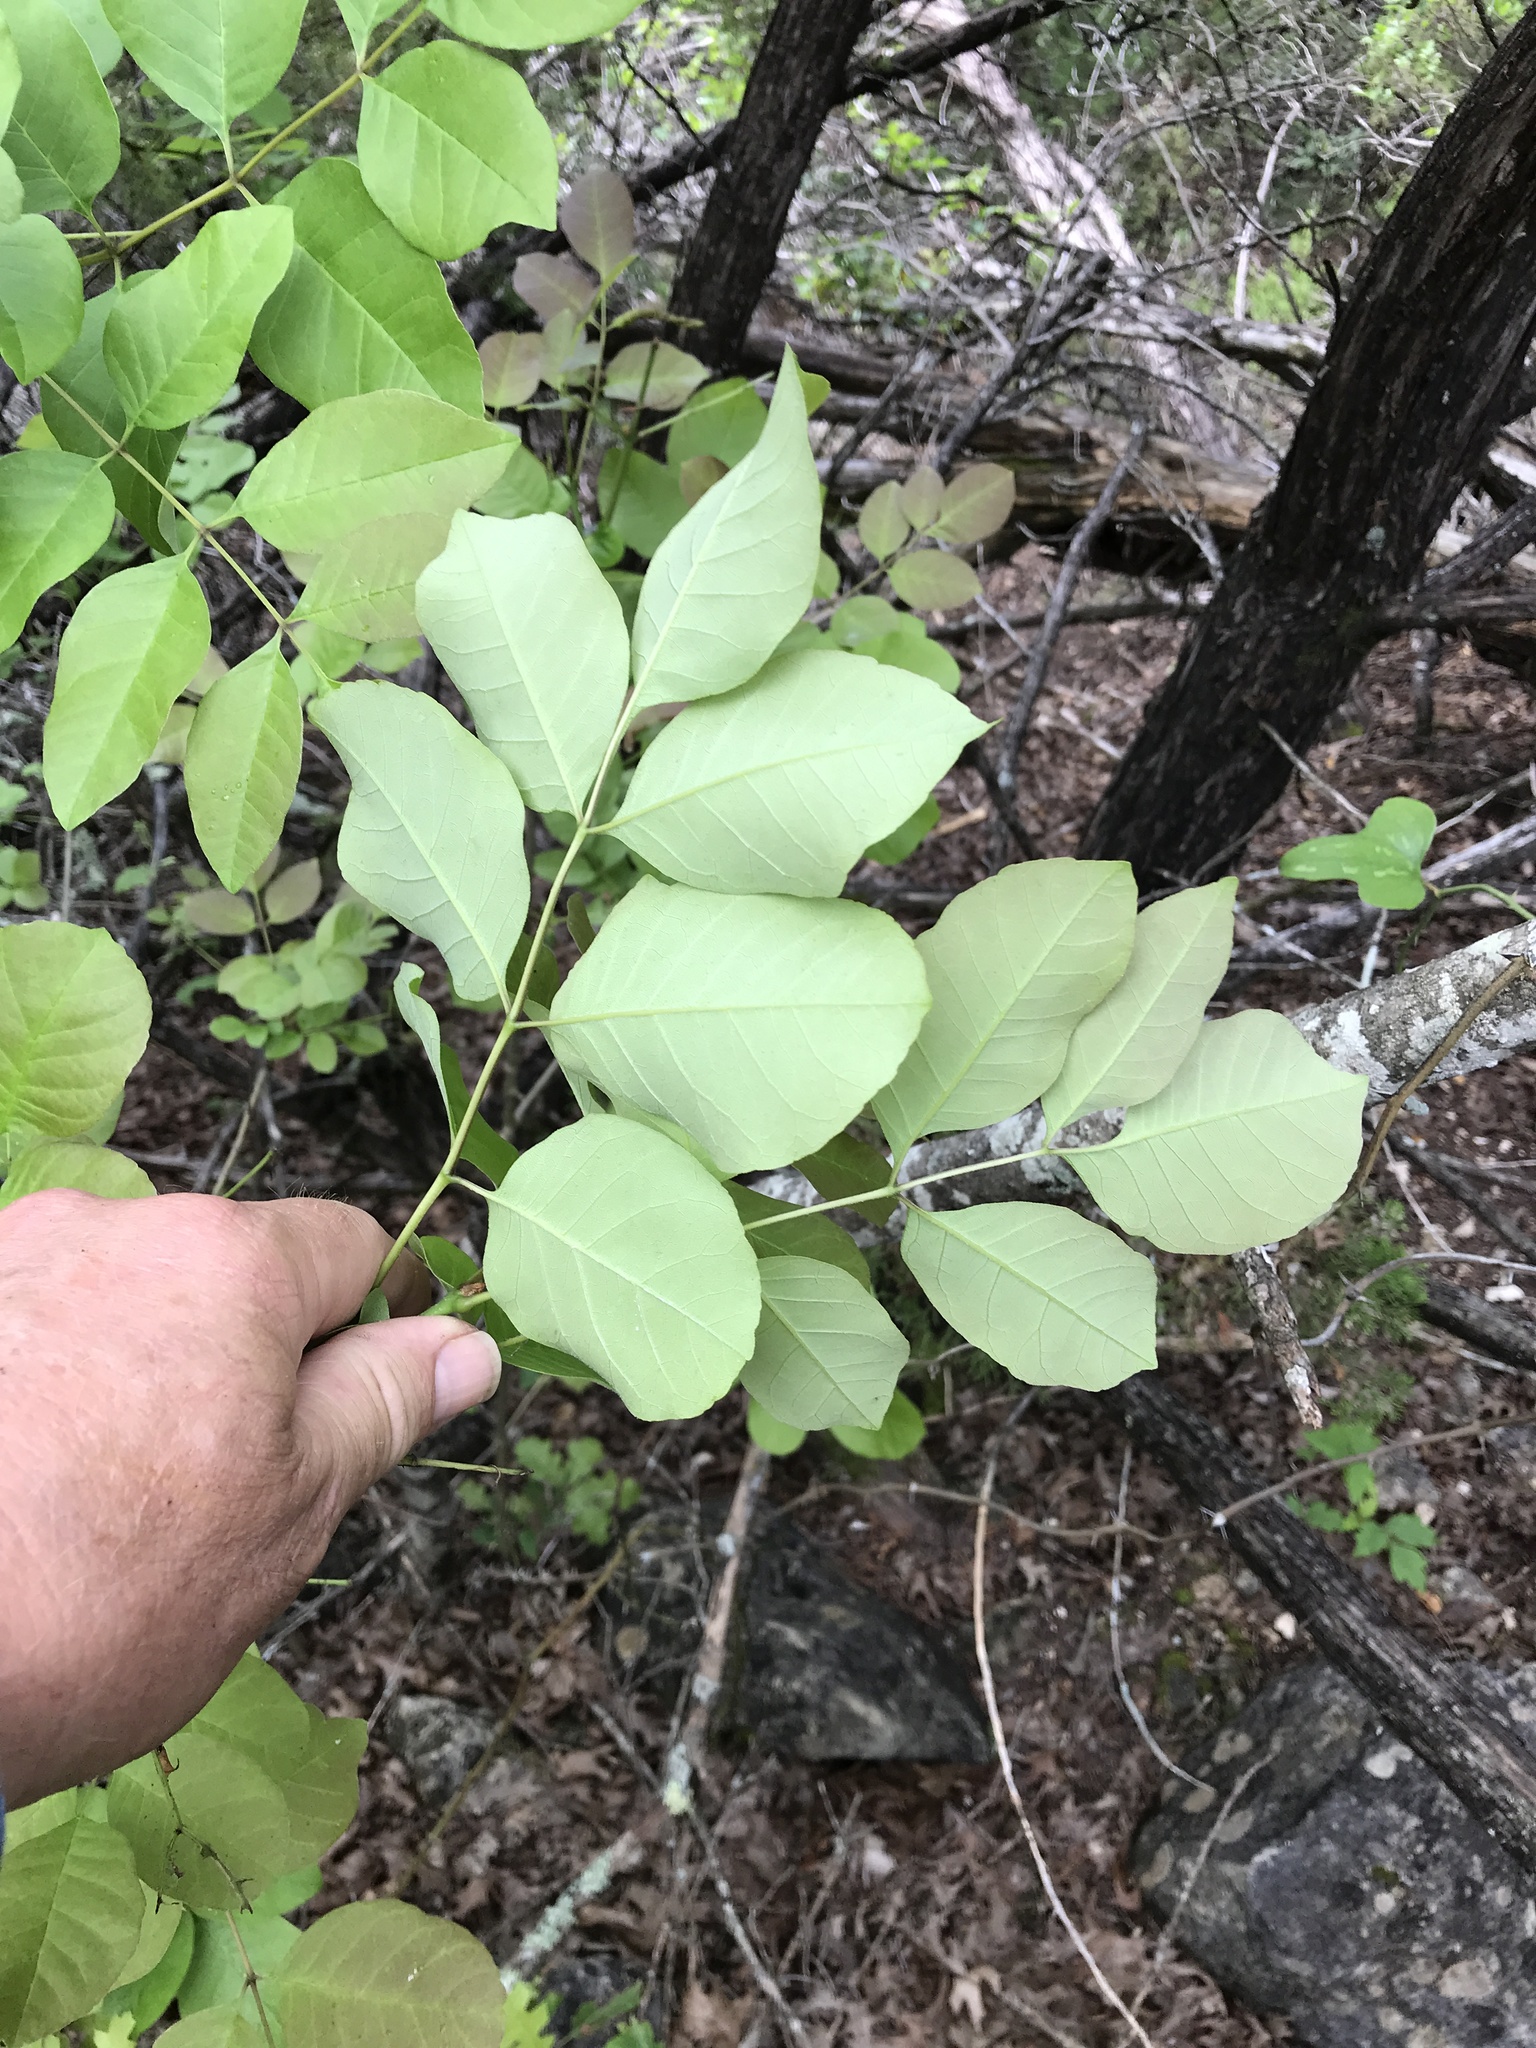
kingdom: Plantae
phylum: Tracheophyta
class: Magnoliopsida
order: Lamiales
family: Oleaceae
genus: Fraxinus
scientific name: Fraxinus albicans
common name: Texas ash
